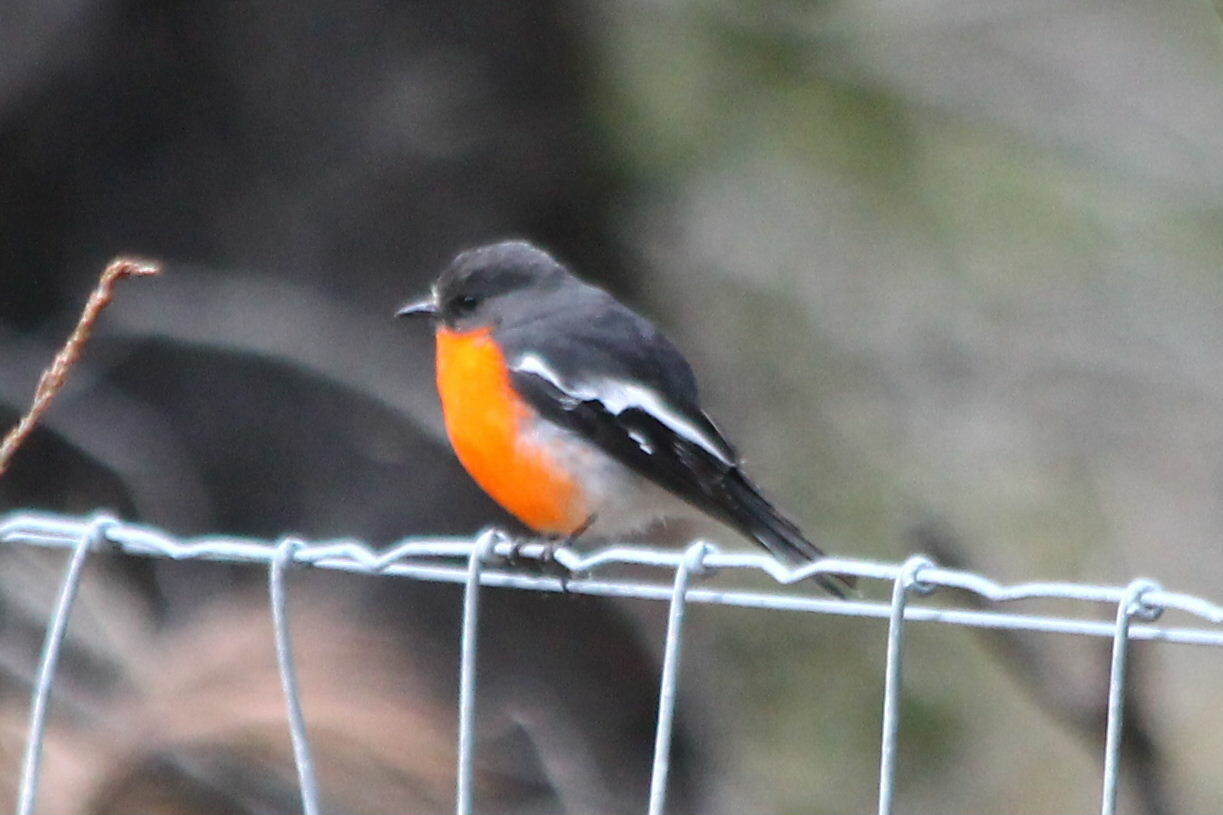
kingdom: Animalia
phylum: Chordata
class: Aves
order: Passeriformes
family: Petroicidae
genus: Petroica
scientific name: Petroica phoenicea
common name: Flame robin
